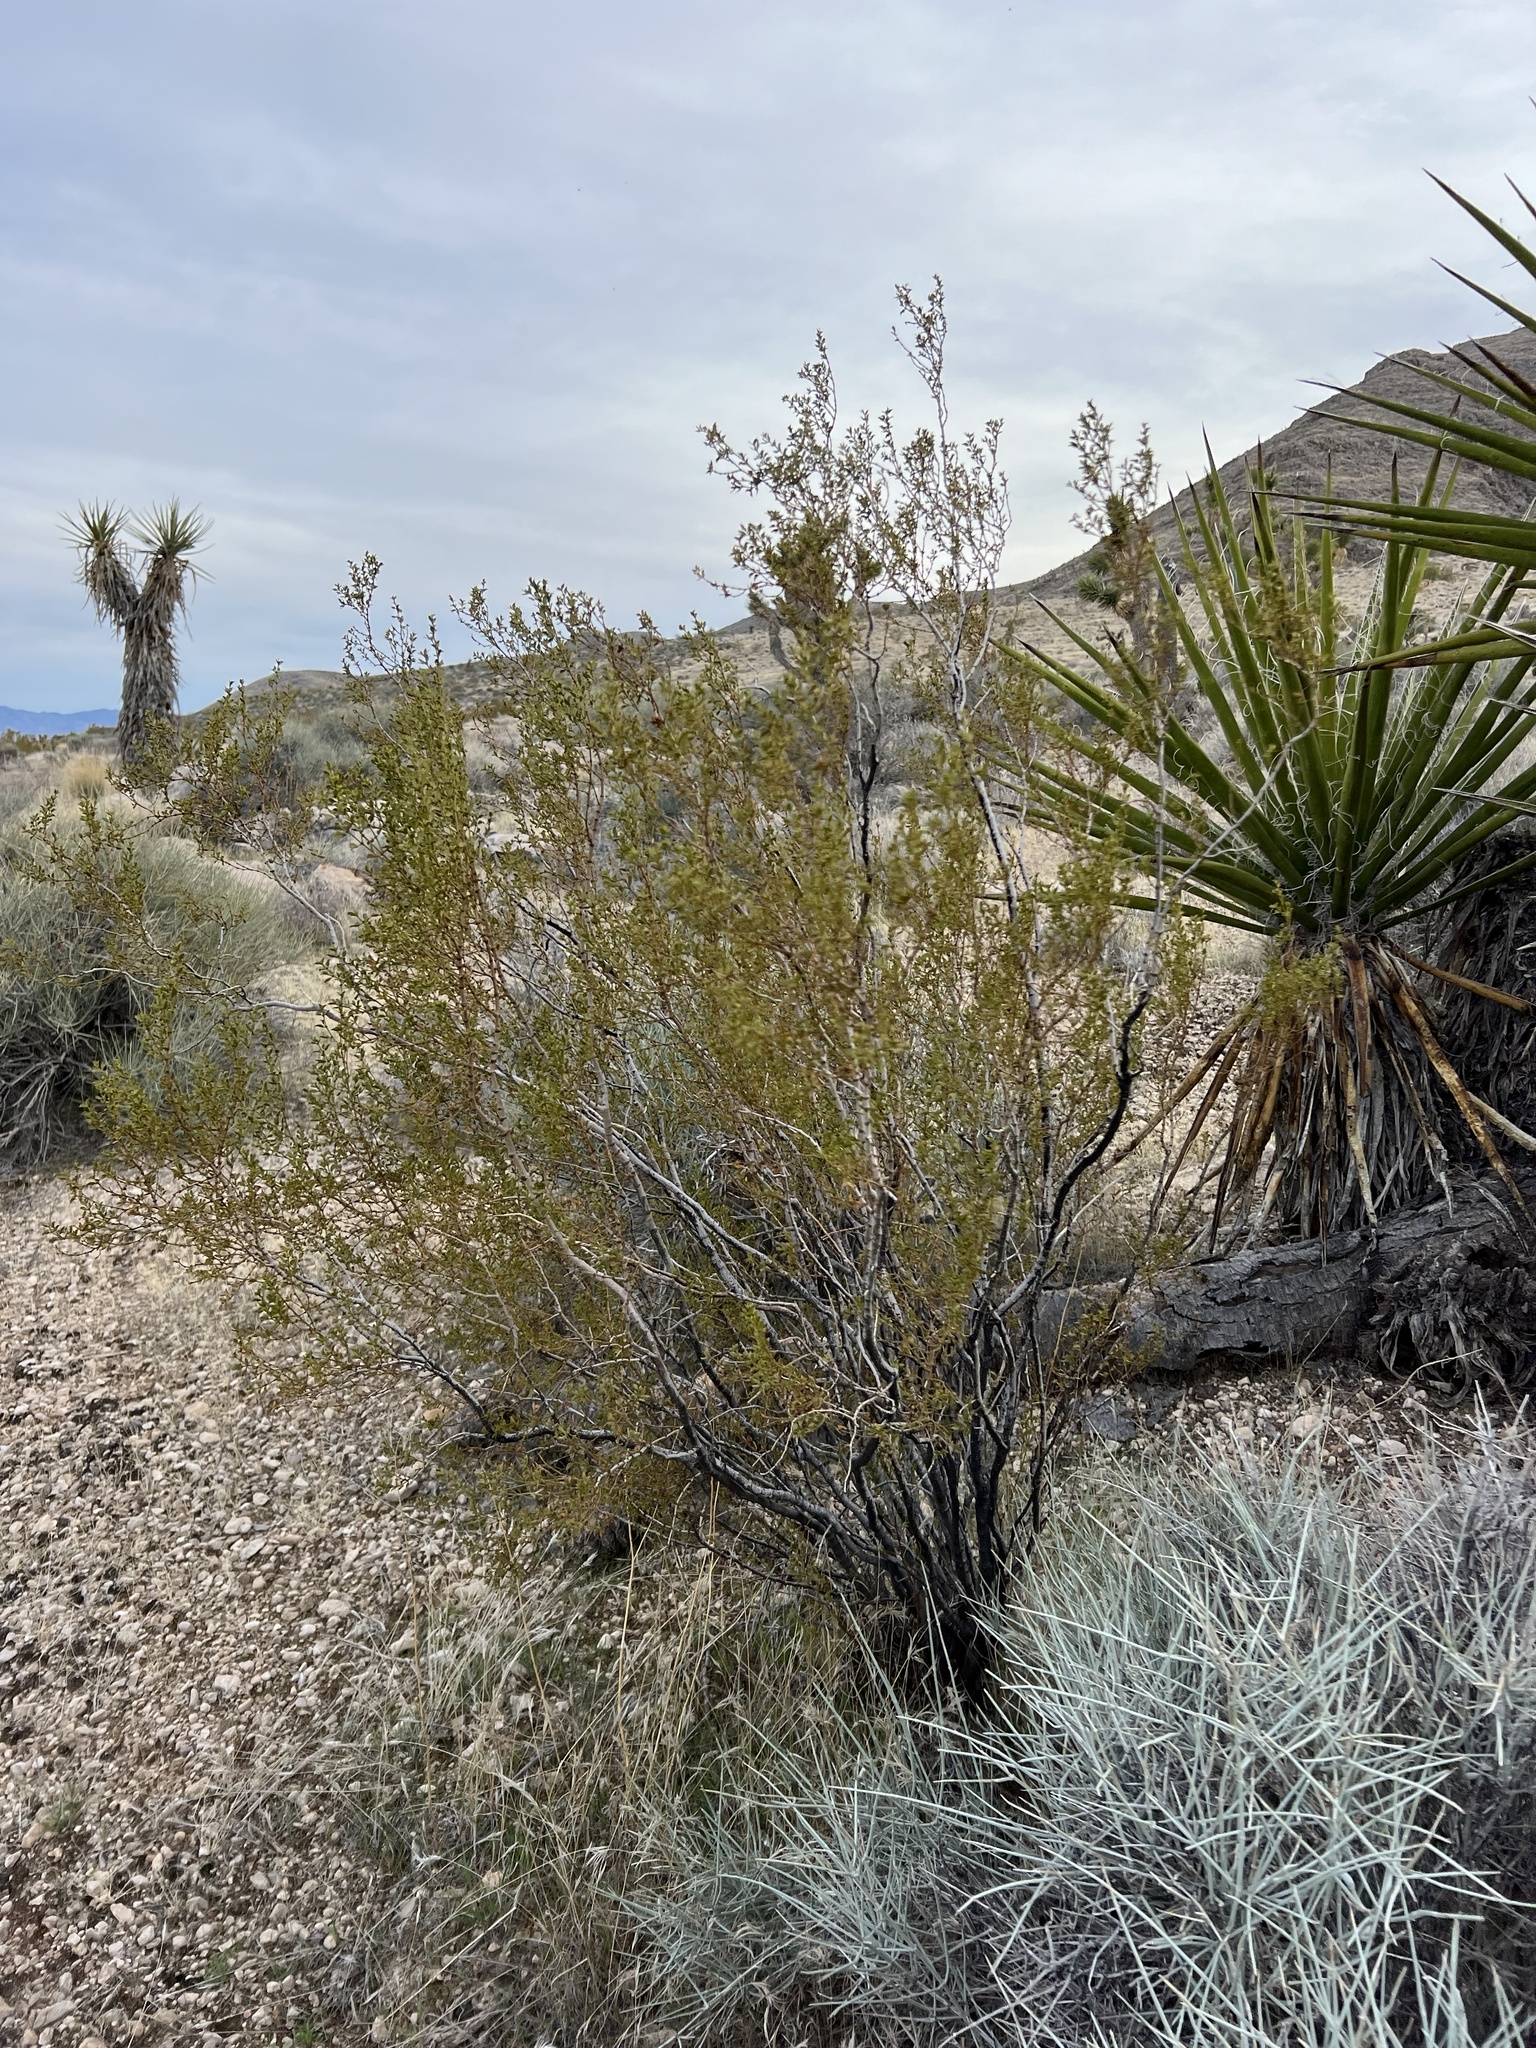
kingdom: Plantae
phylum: Tracheophyta
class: Magnoliopsida
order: Zygophyllales
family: Zygophyllaceae
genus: Larrea
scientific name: Larrea tridentata
